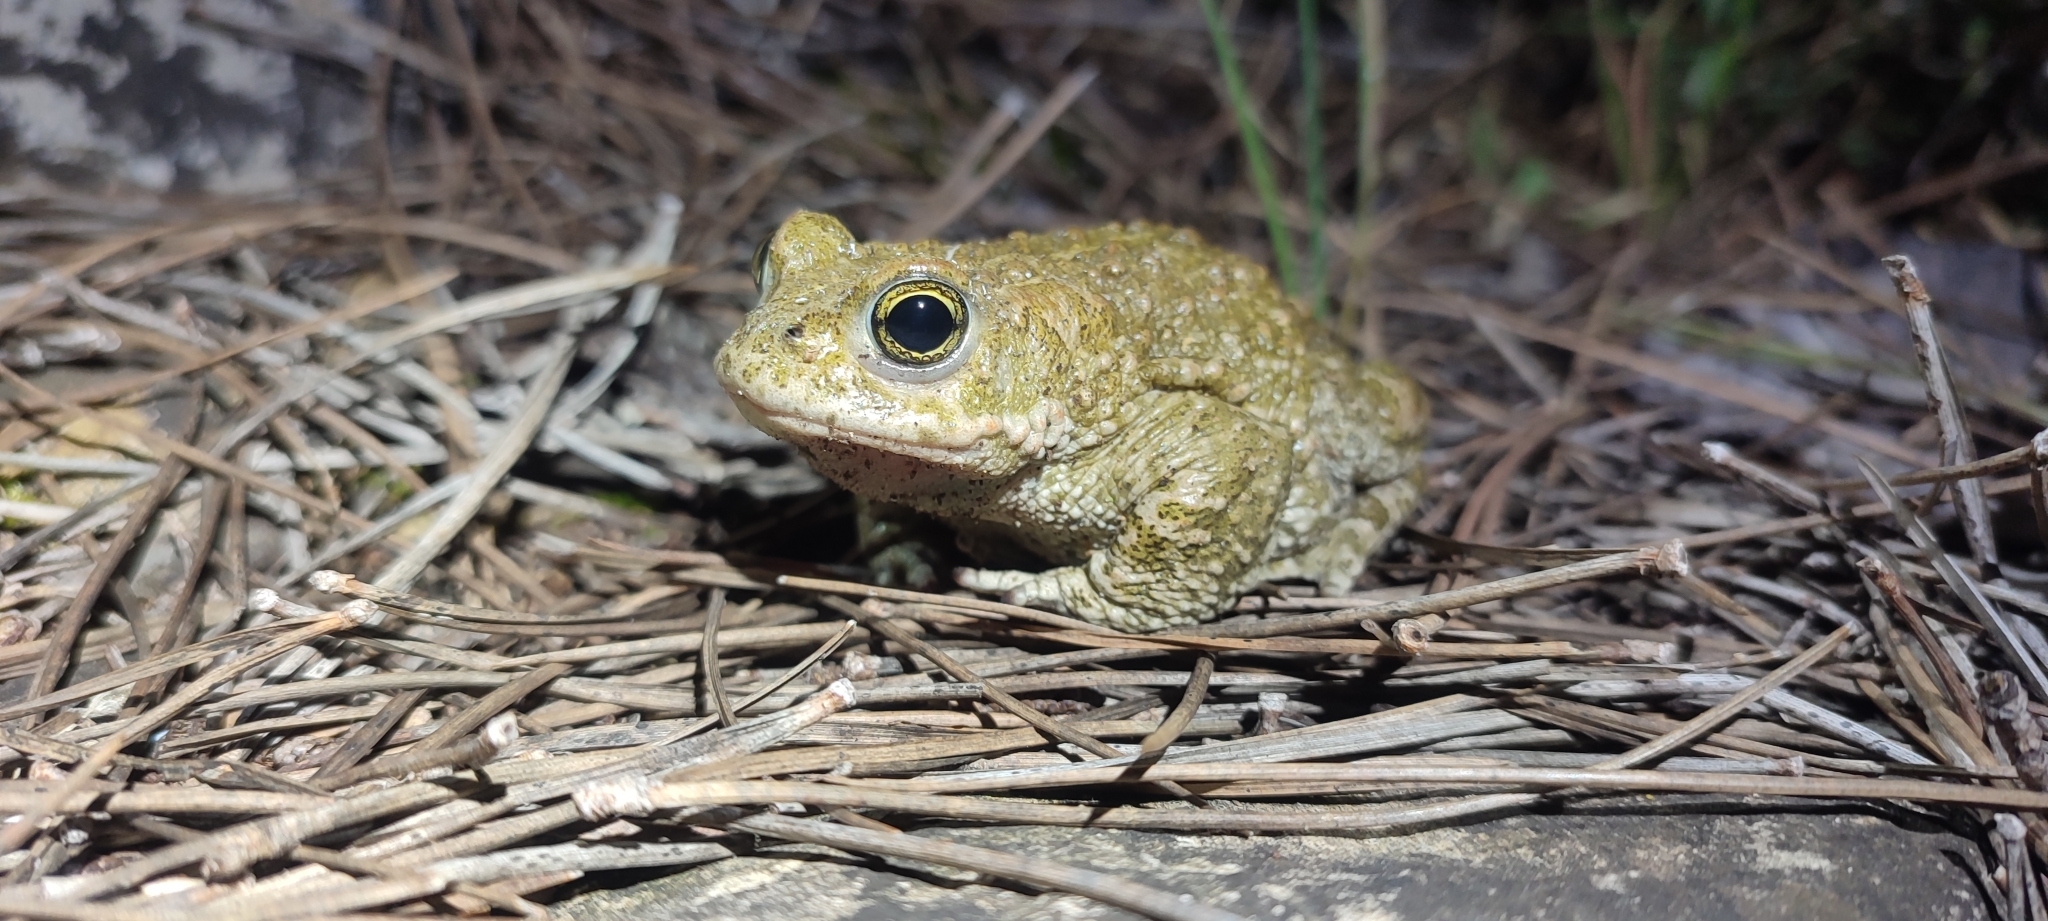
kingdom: Animalia
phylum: Chordata
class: Amphibia
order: Anura
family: Bufonidae
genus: Epidalea
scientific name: Epidalea calamita
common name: Natterjack toad
